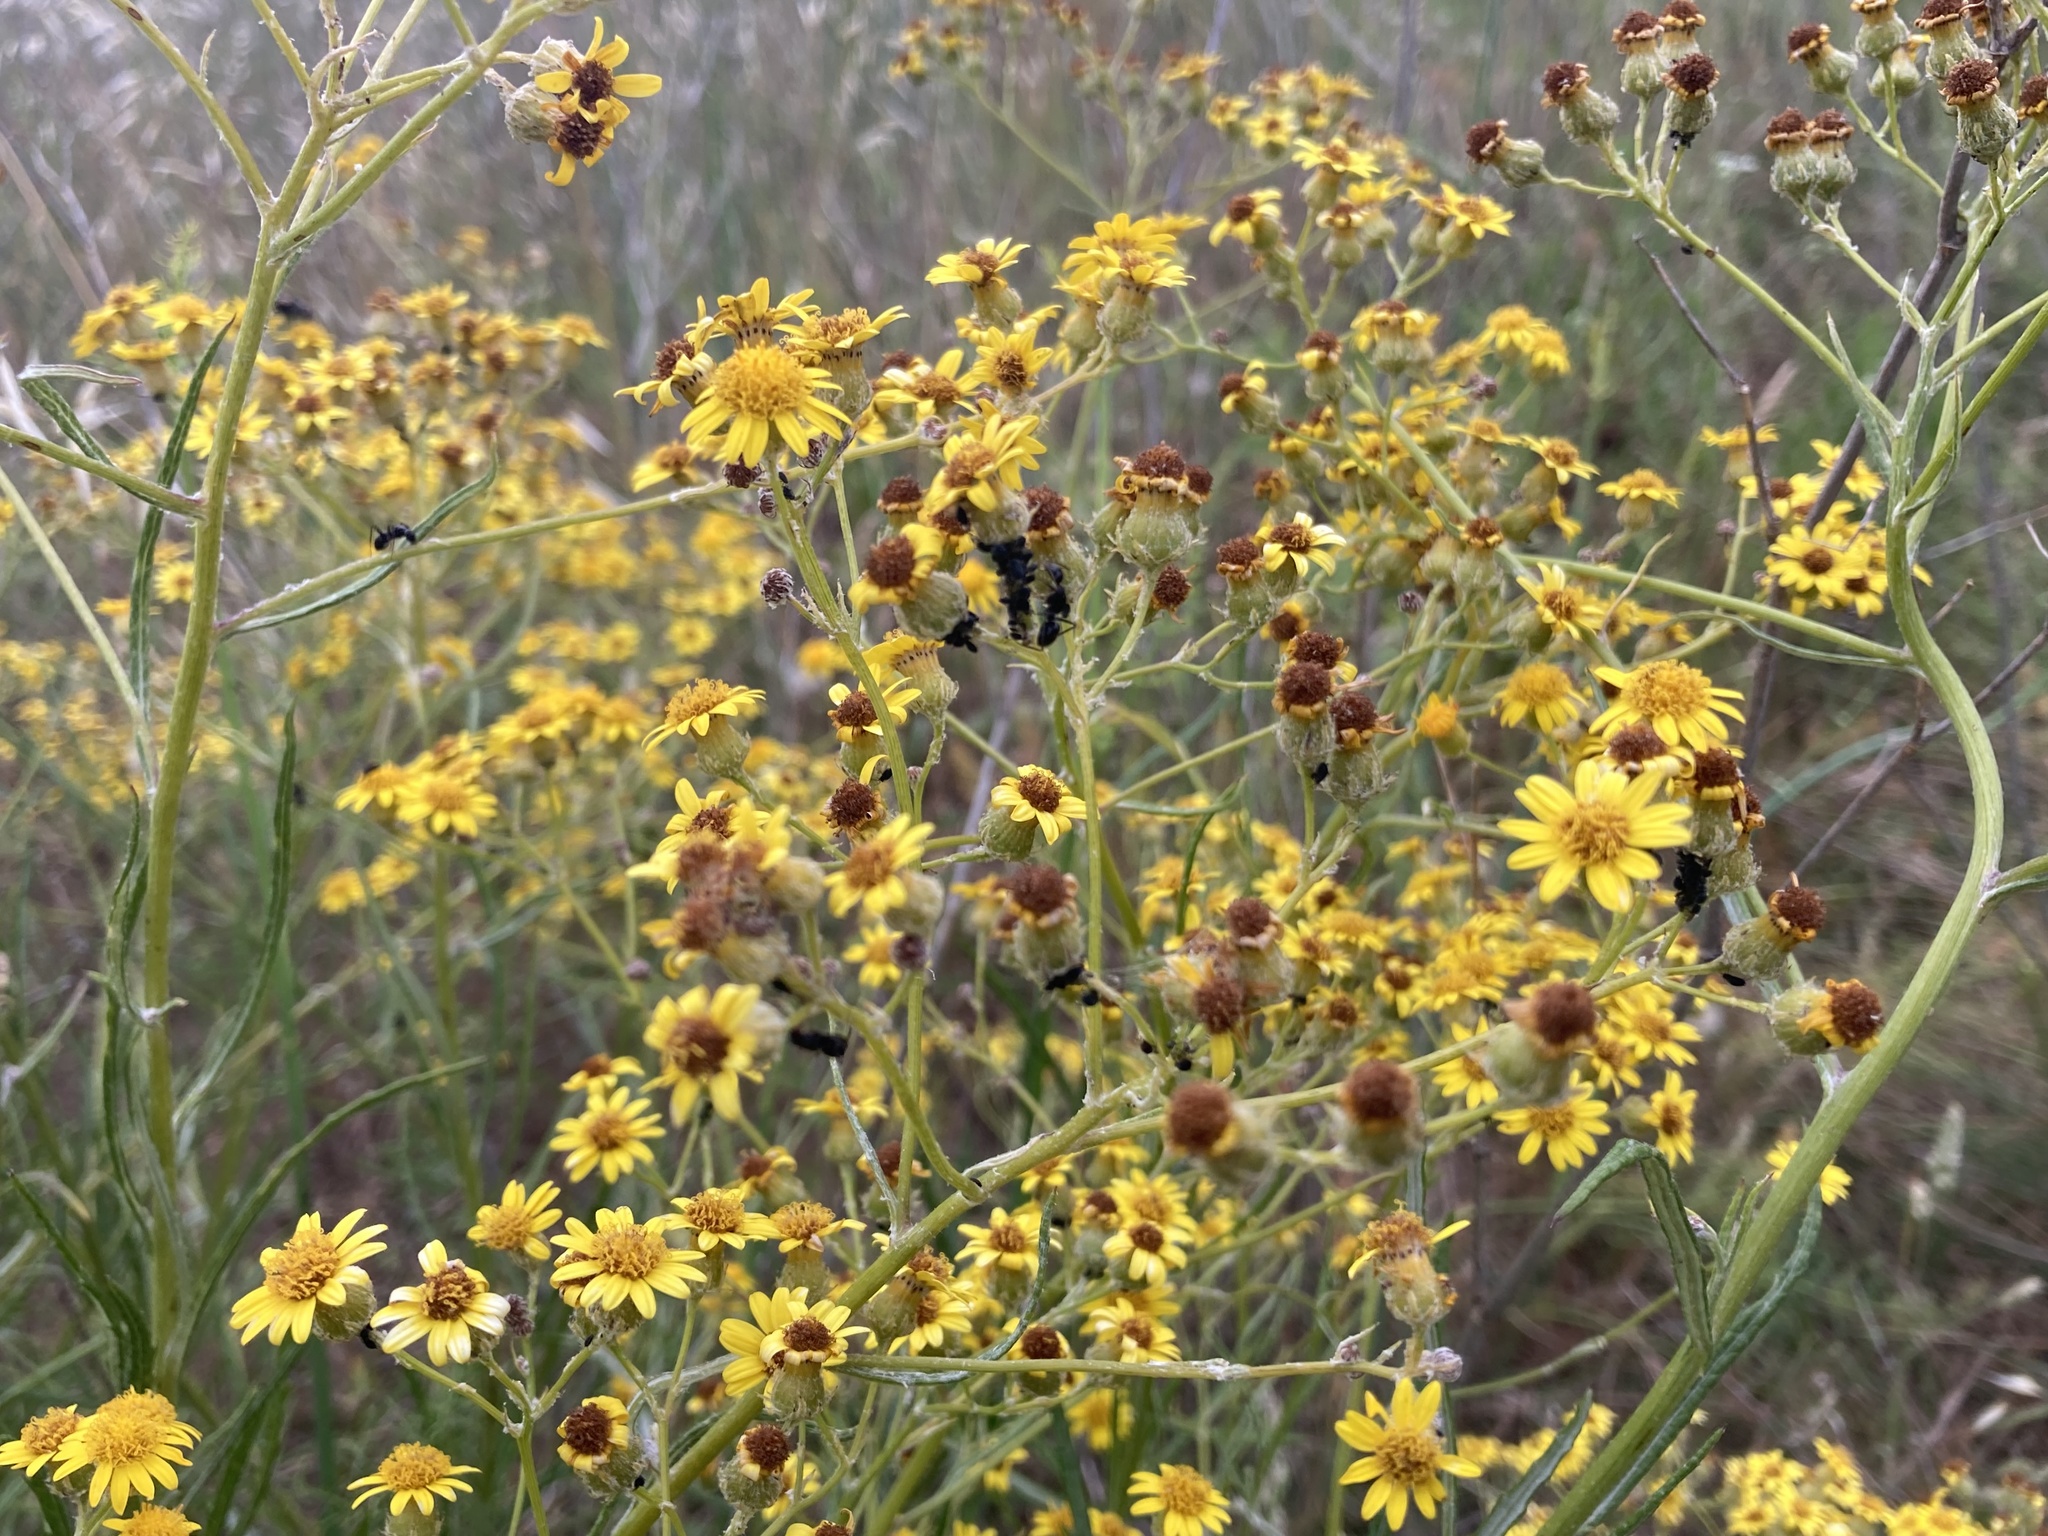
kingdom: Plantae
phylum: Tracheophyta
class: Magnoliopsida
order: Asterales
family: Asteraceae
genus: Senecio
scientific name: Senecio pterophorus
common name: Shoddy ragwort
